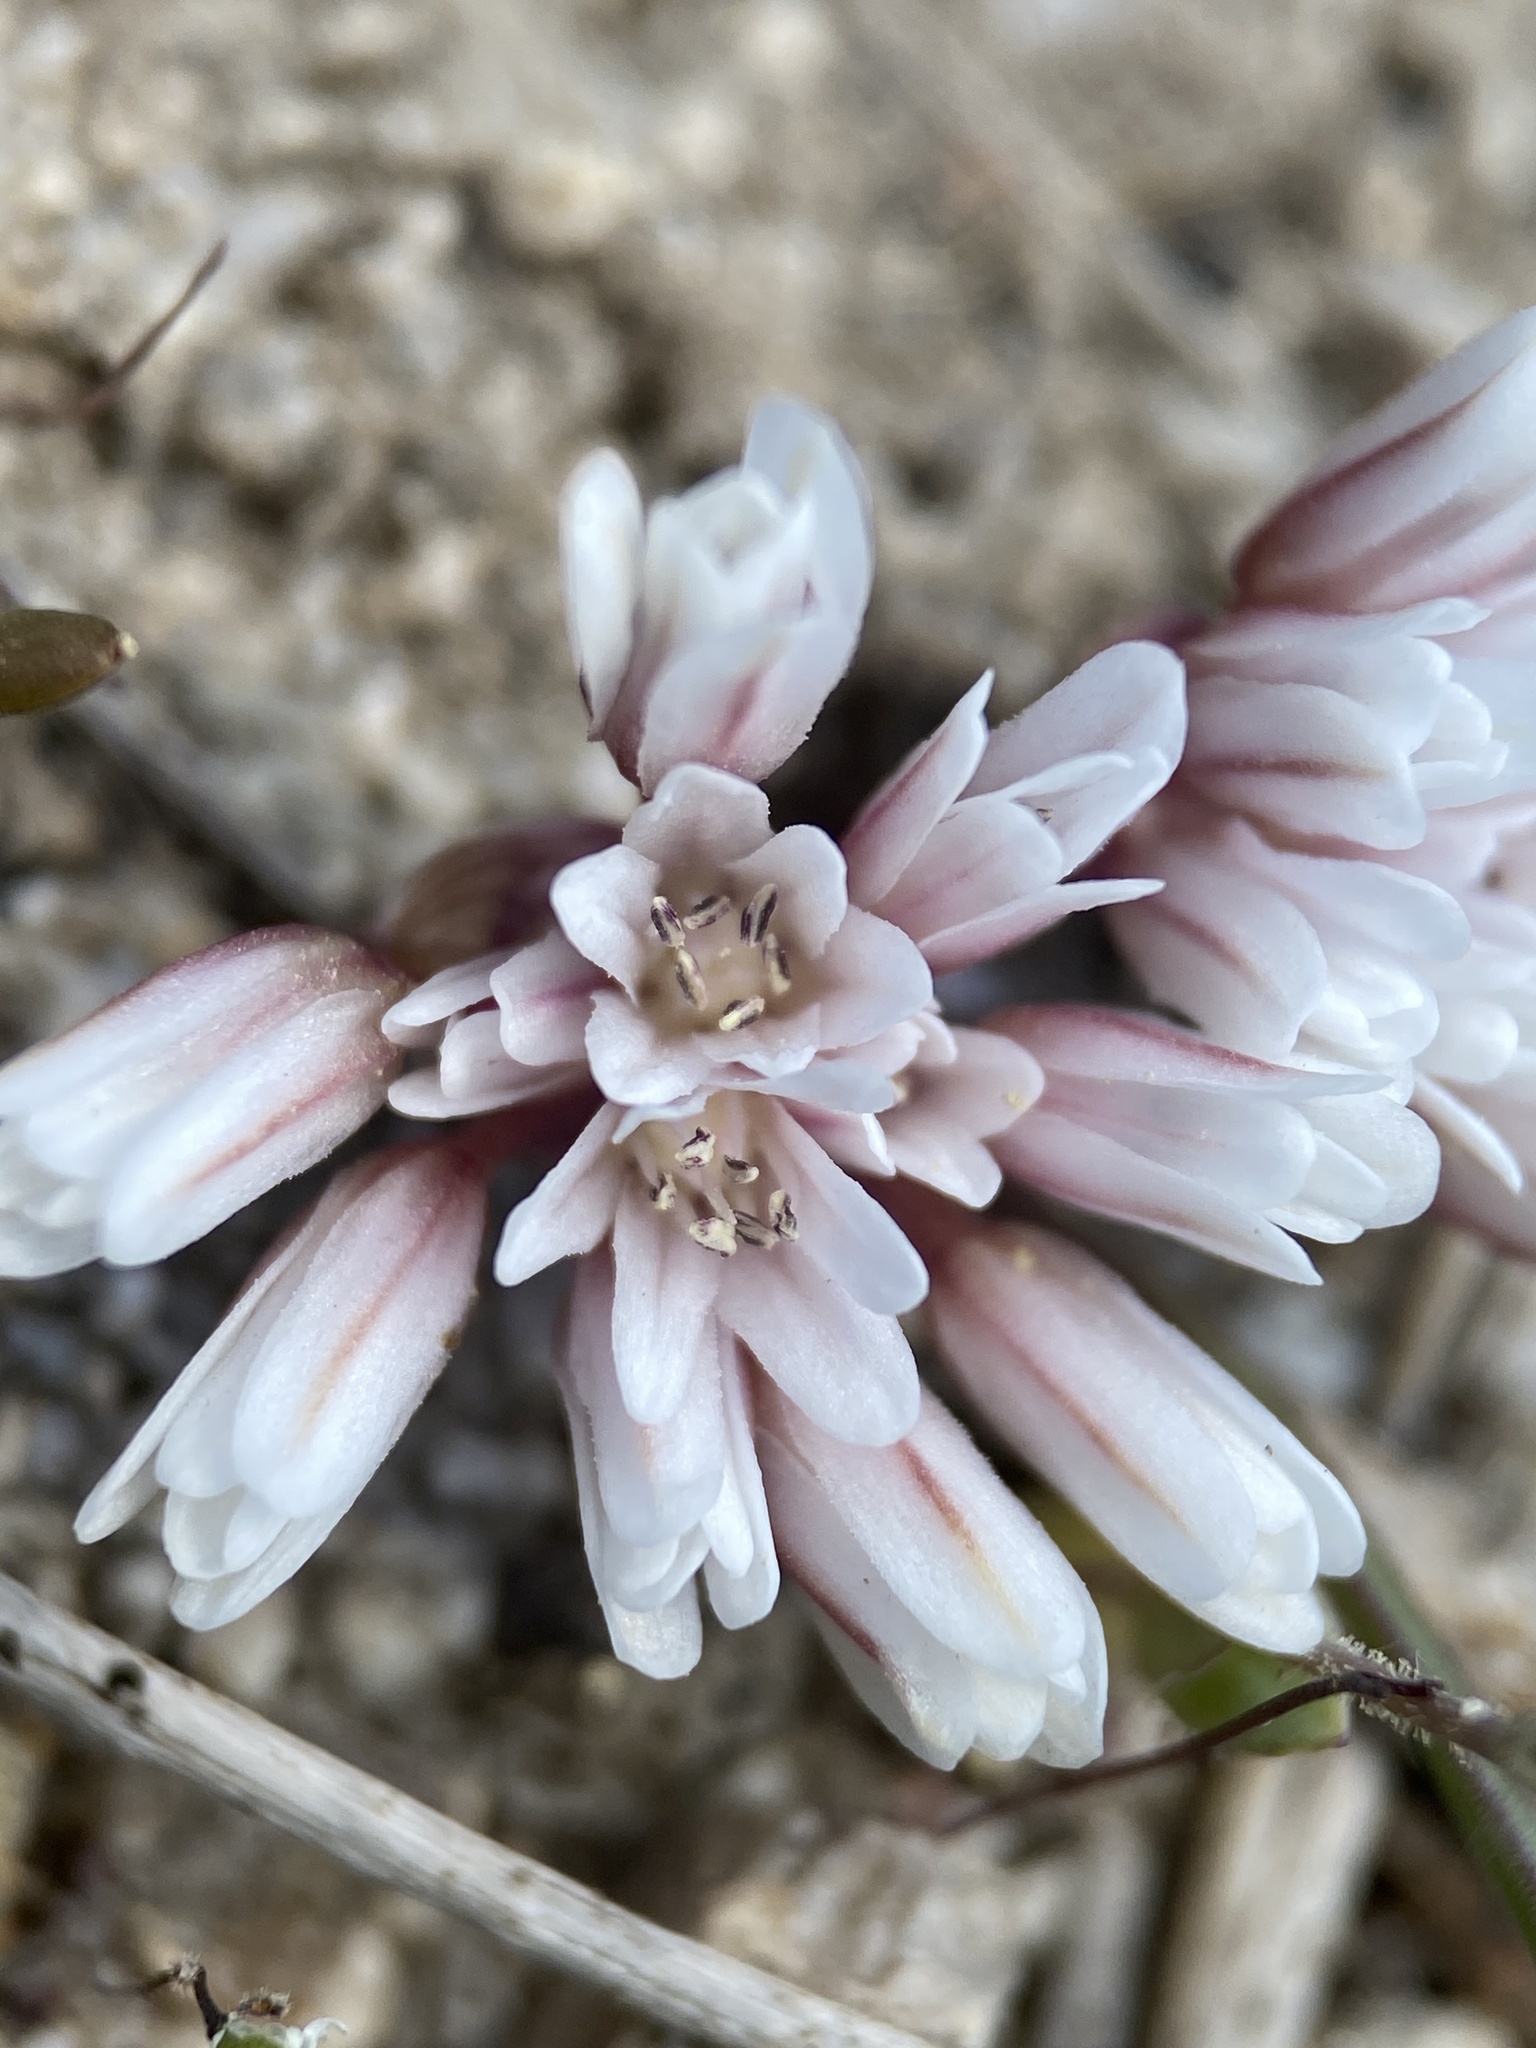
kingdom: Plantae
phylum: Tracheophyta
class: Liliopsida
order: Asparagales
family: Amaryllidaceae
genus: Allium
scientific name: Allium simillimum
